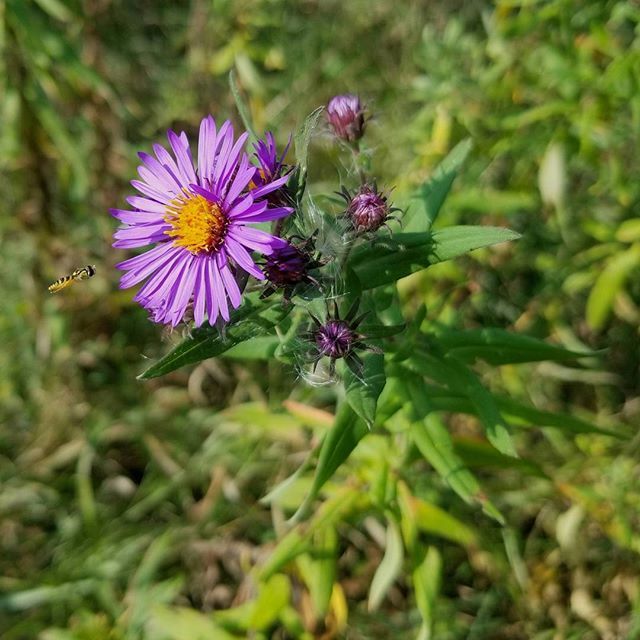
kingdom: Plantae
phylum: Tracheophyta
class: Magnoliopsida
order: Asterales
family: Asteraceae
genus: Symphyotrichum
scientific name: Symphyotrichum novae-angliae
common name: Michaelmas daisy
